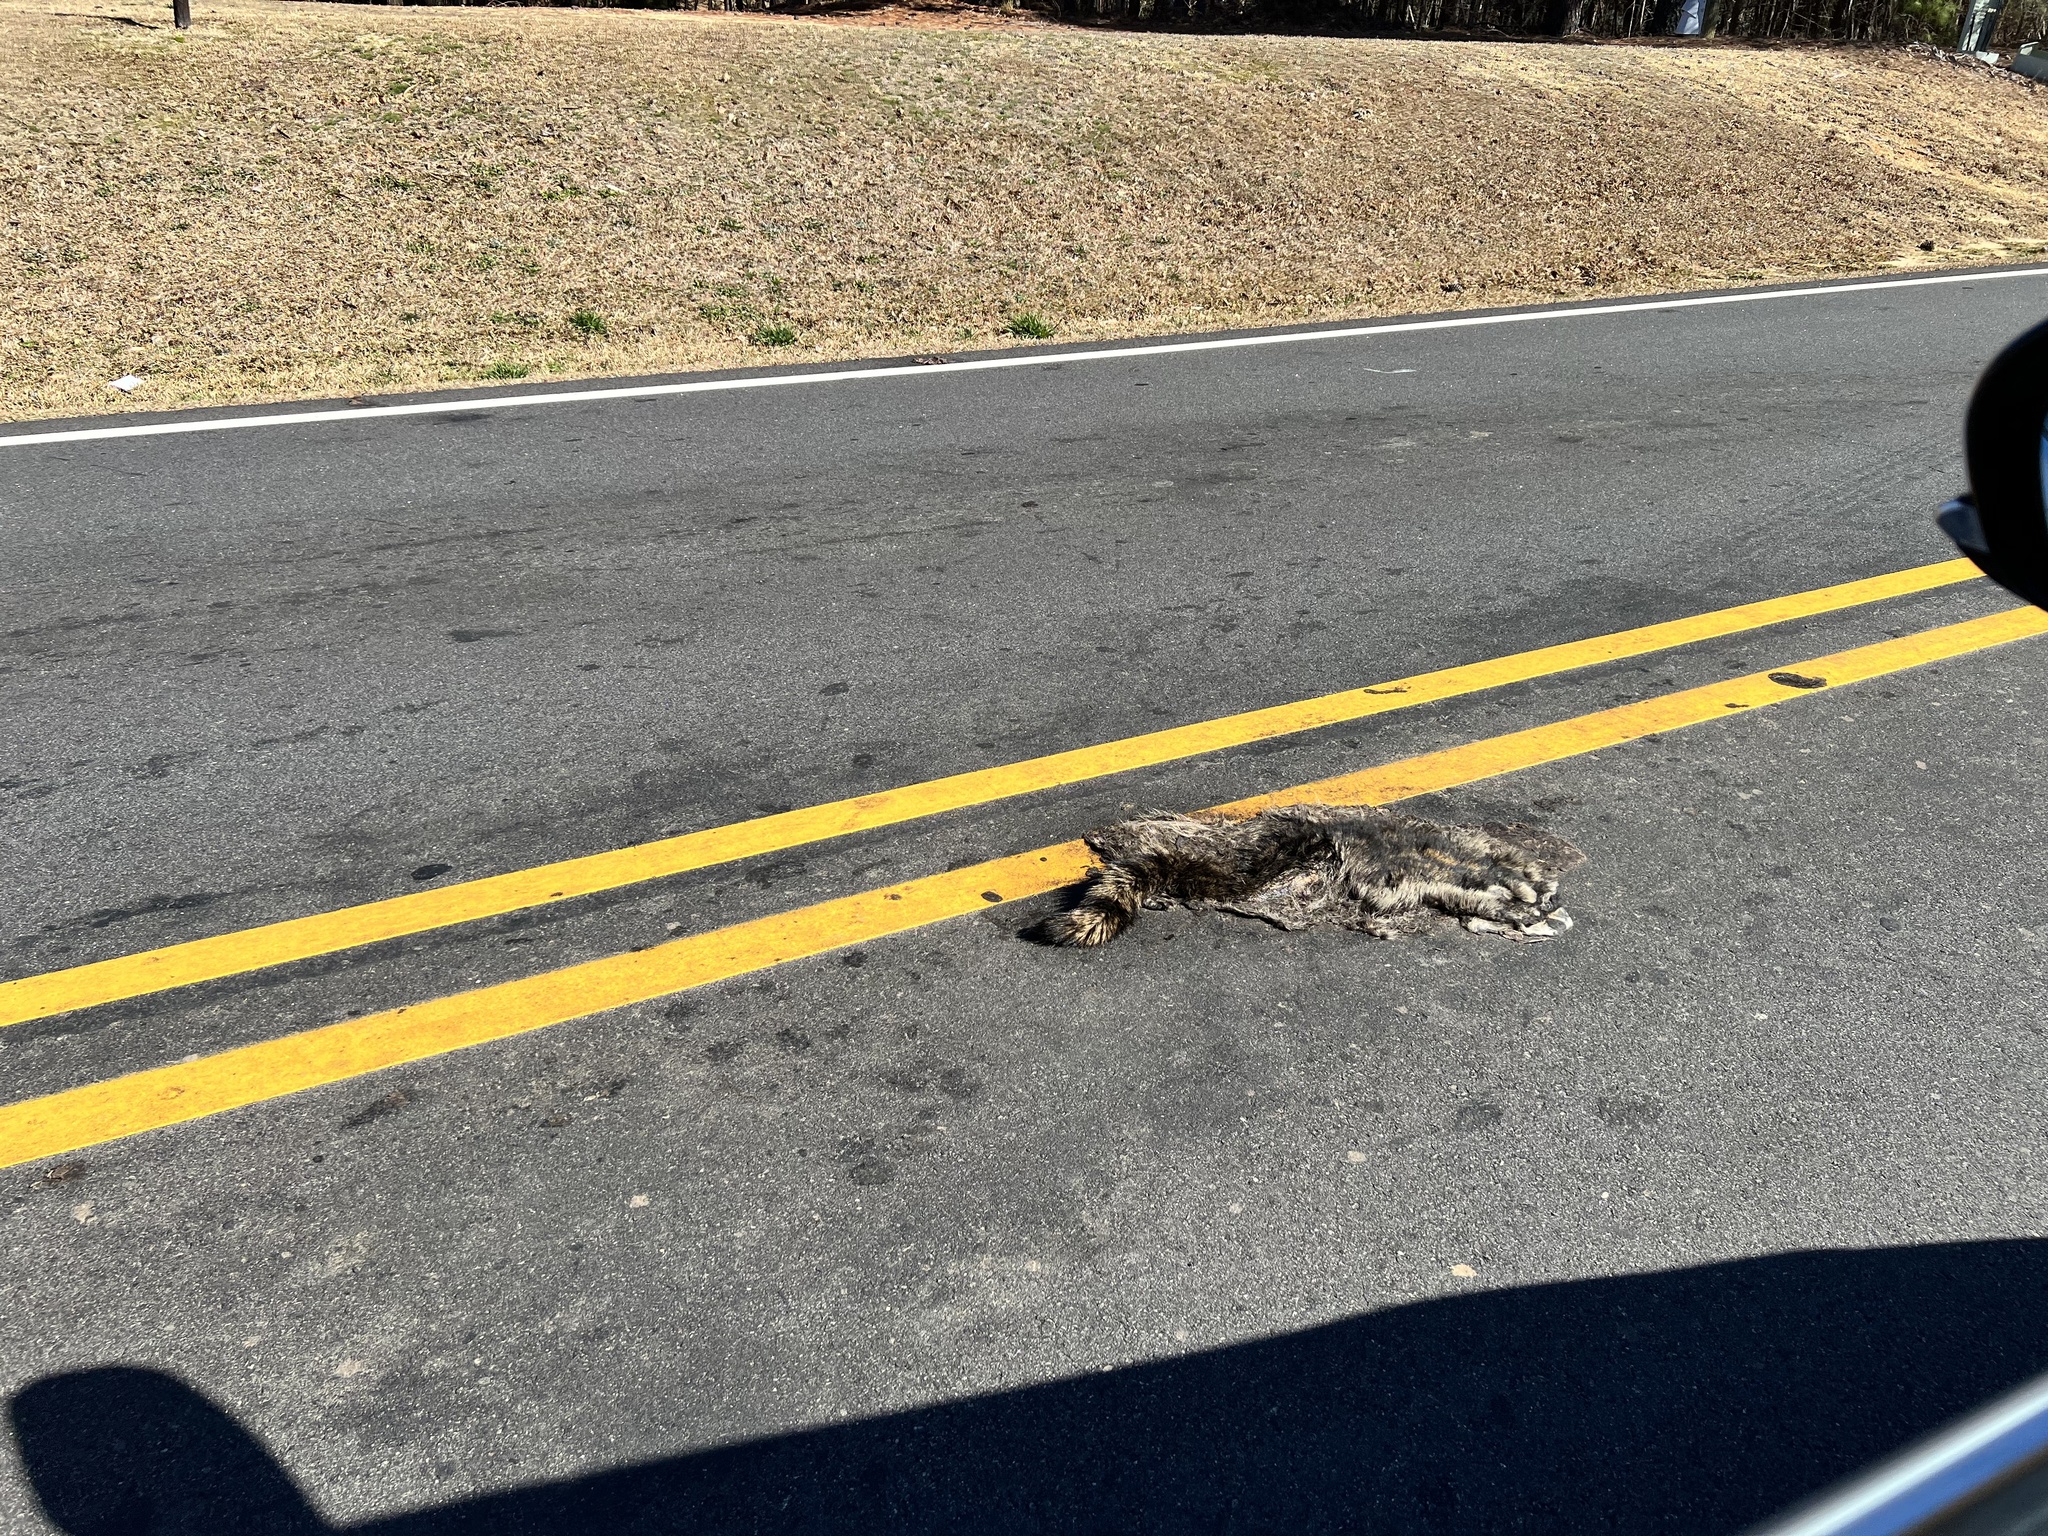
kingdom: Animalia
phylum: Chordata
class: Mammalia
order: Carnivora
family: Procyonidae
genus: Procyon
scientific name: Procyon lotor
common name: Raccoon
